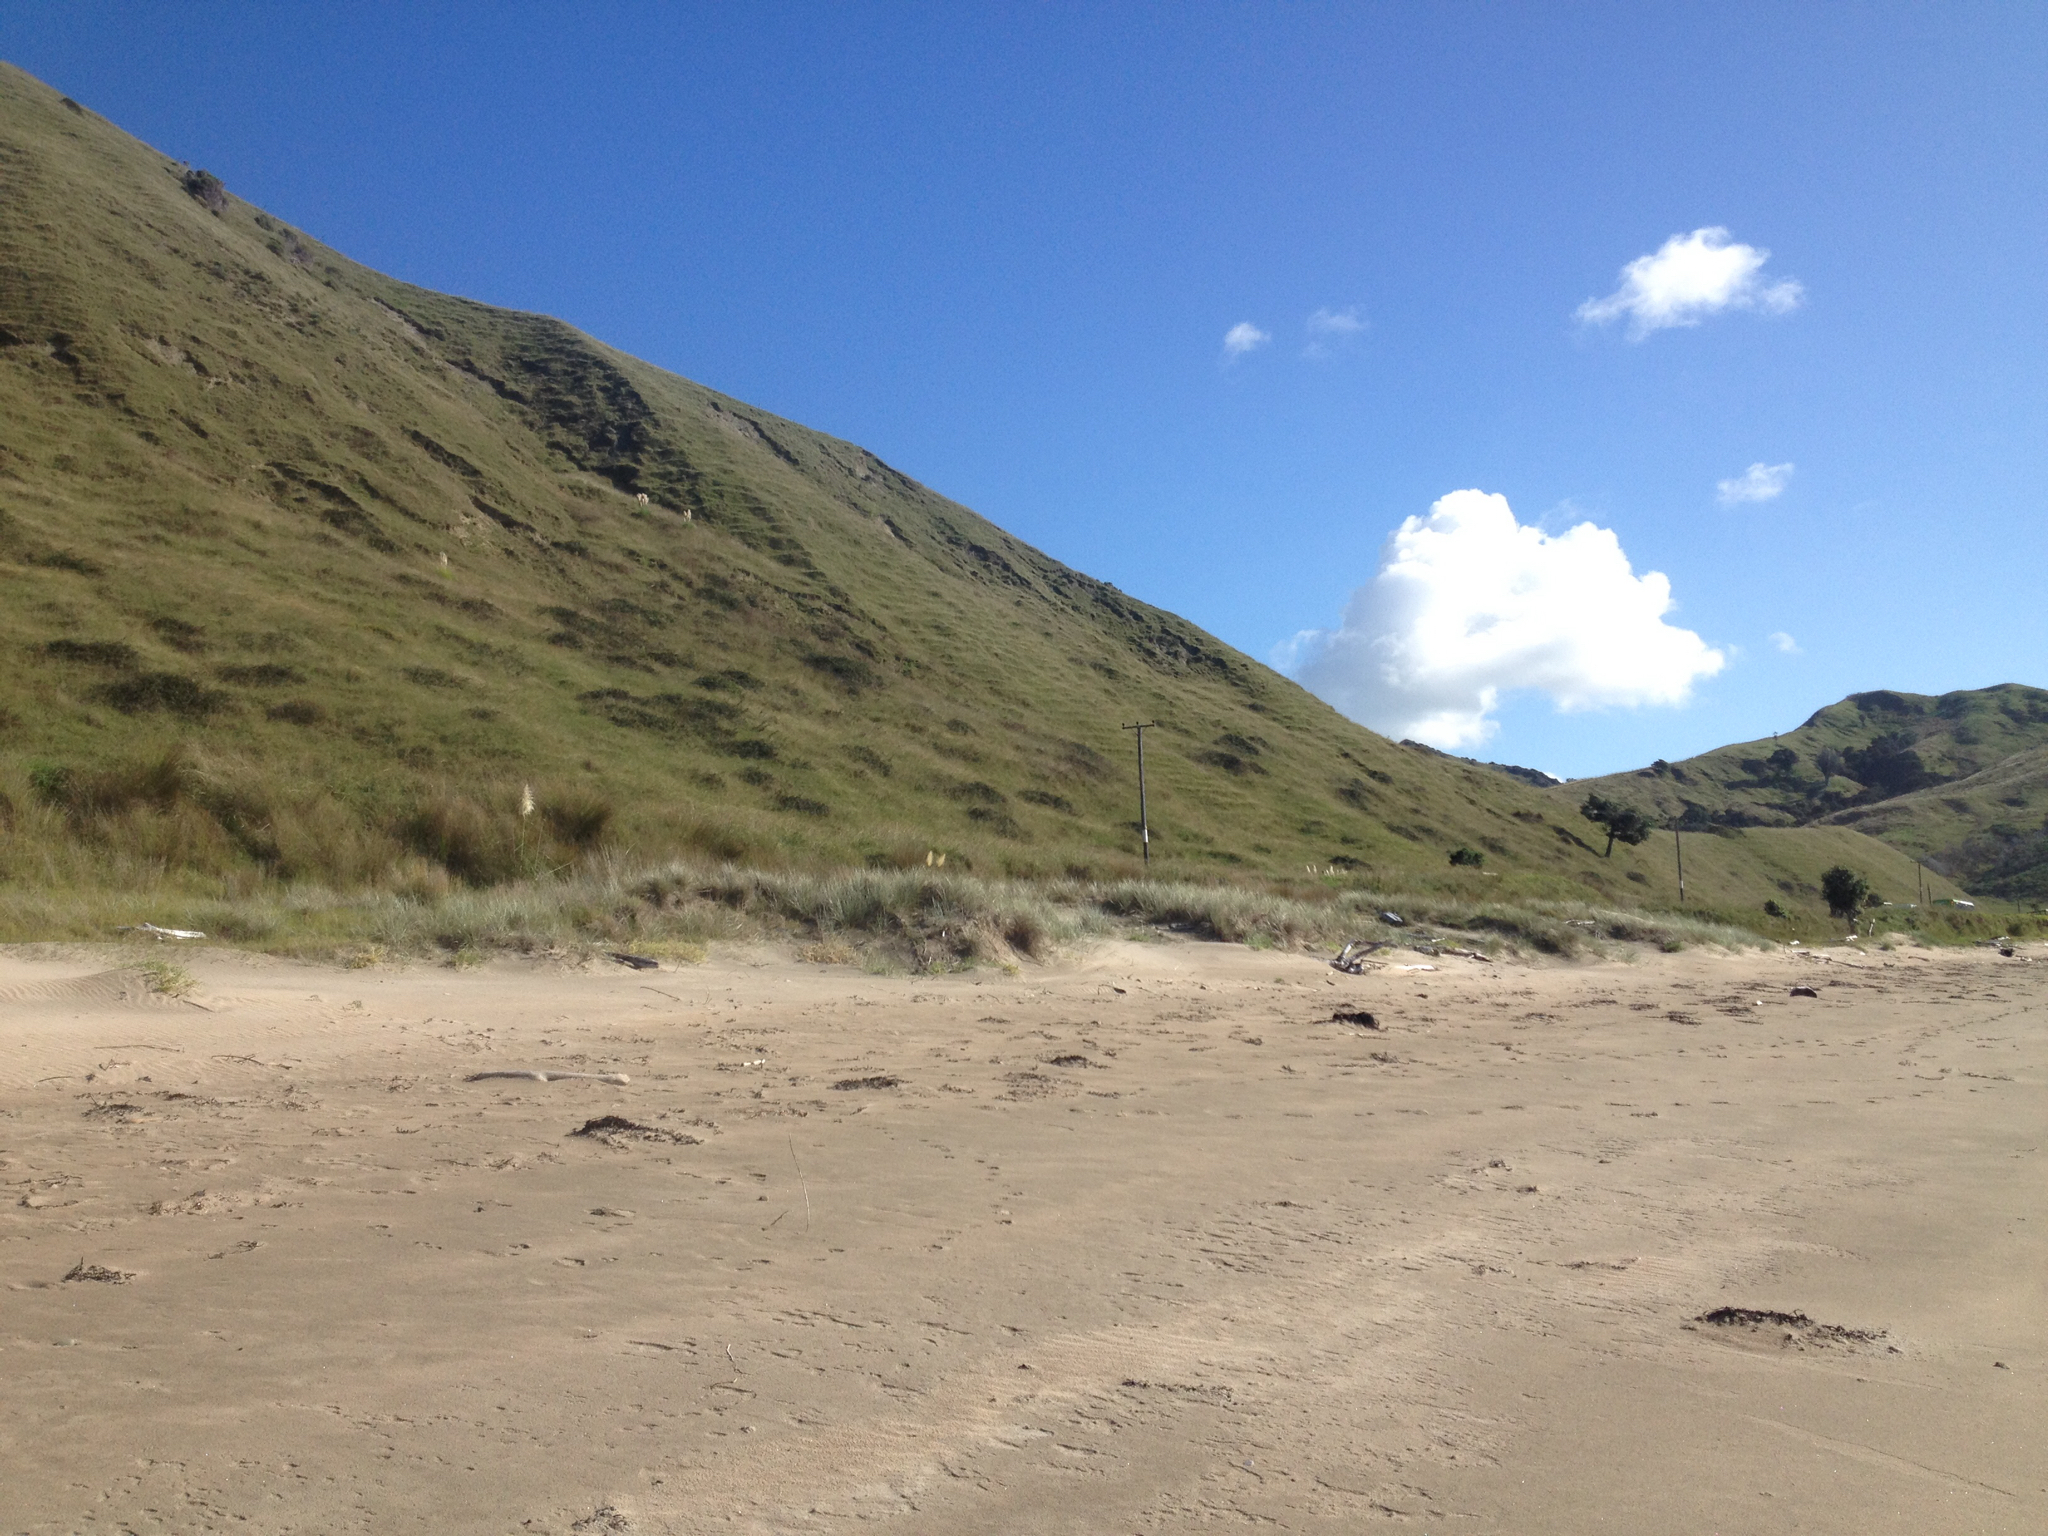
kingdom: Plantae
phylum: Tracheophyta
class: Liliopsida
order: Poales
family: Poaceae
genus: Spinifex
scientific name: Spinifex sericeus
